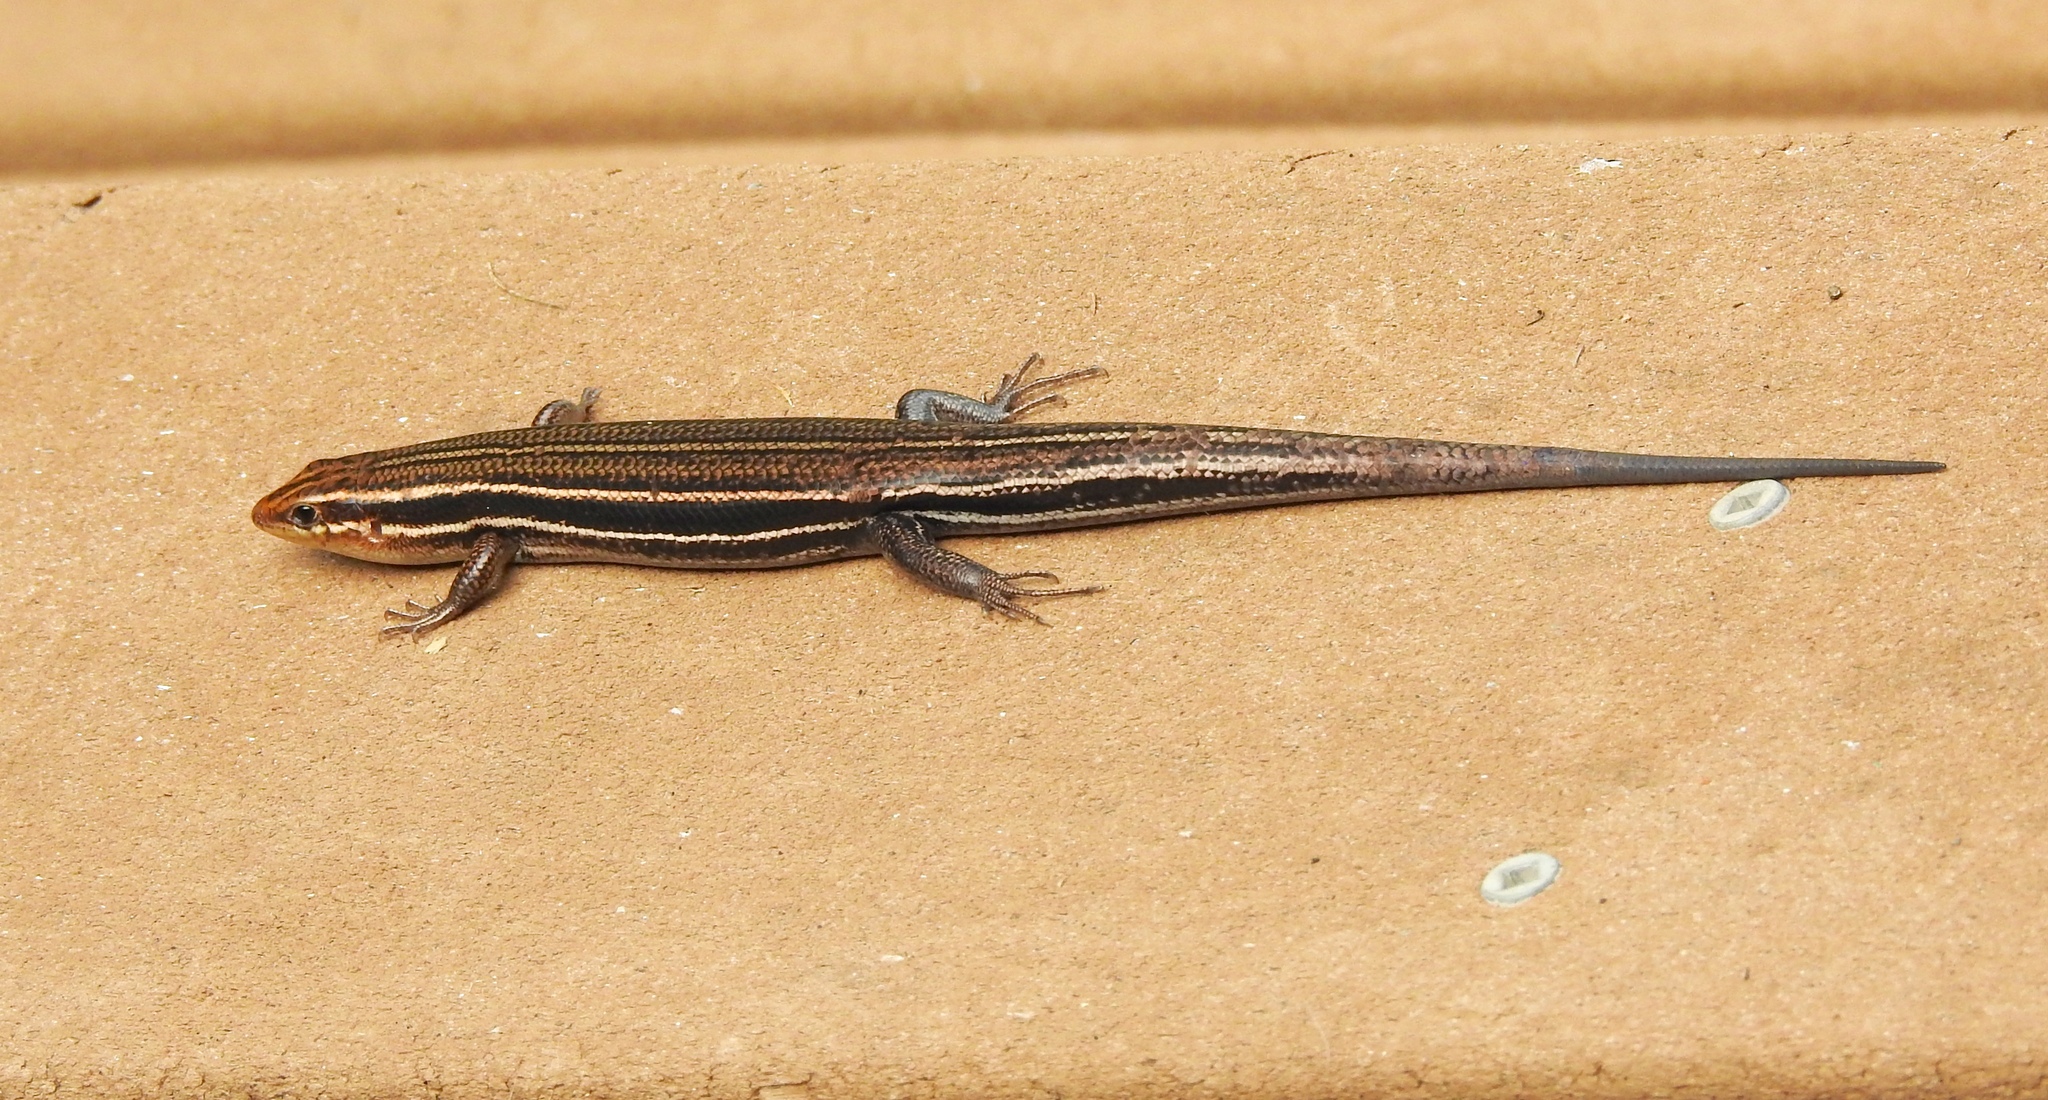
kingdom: Animalia
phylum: Chordata
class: Squamata
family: Scincidae
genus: Plestiodon
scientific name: Plestiodon inexpectatus
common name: Southeastern five-lined skink
